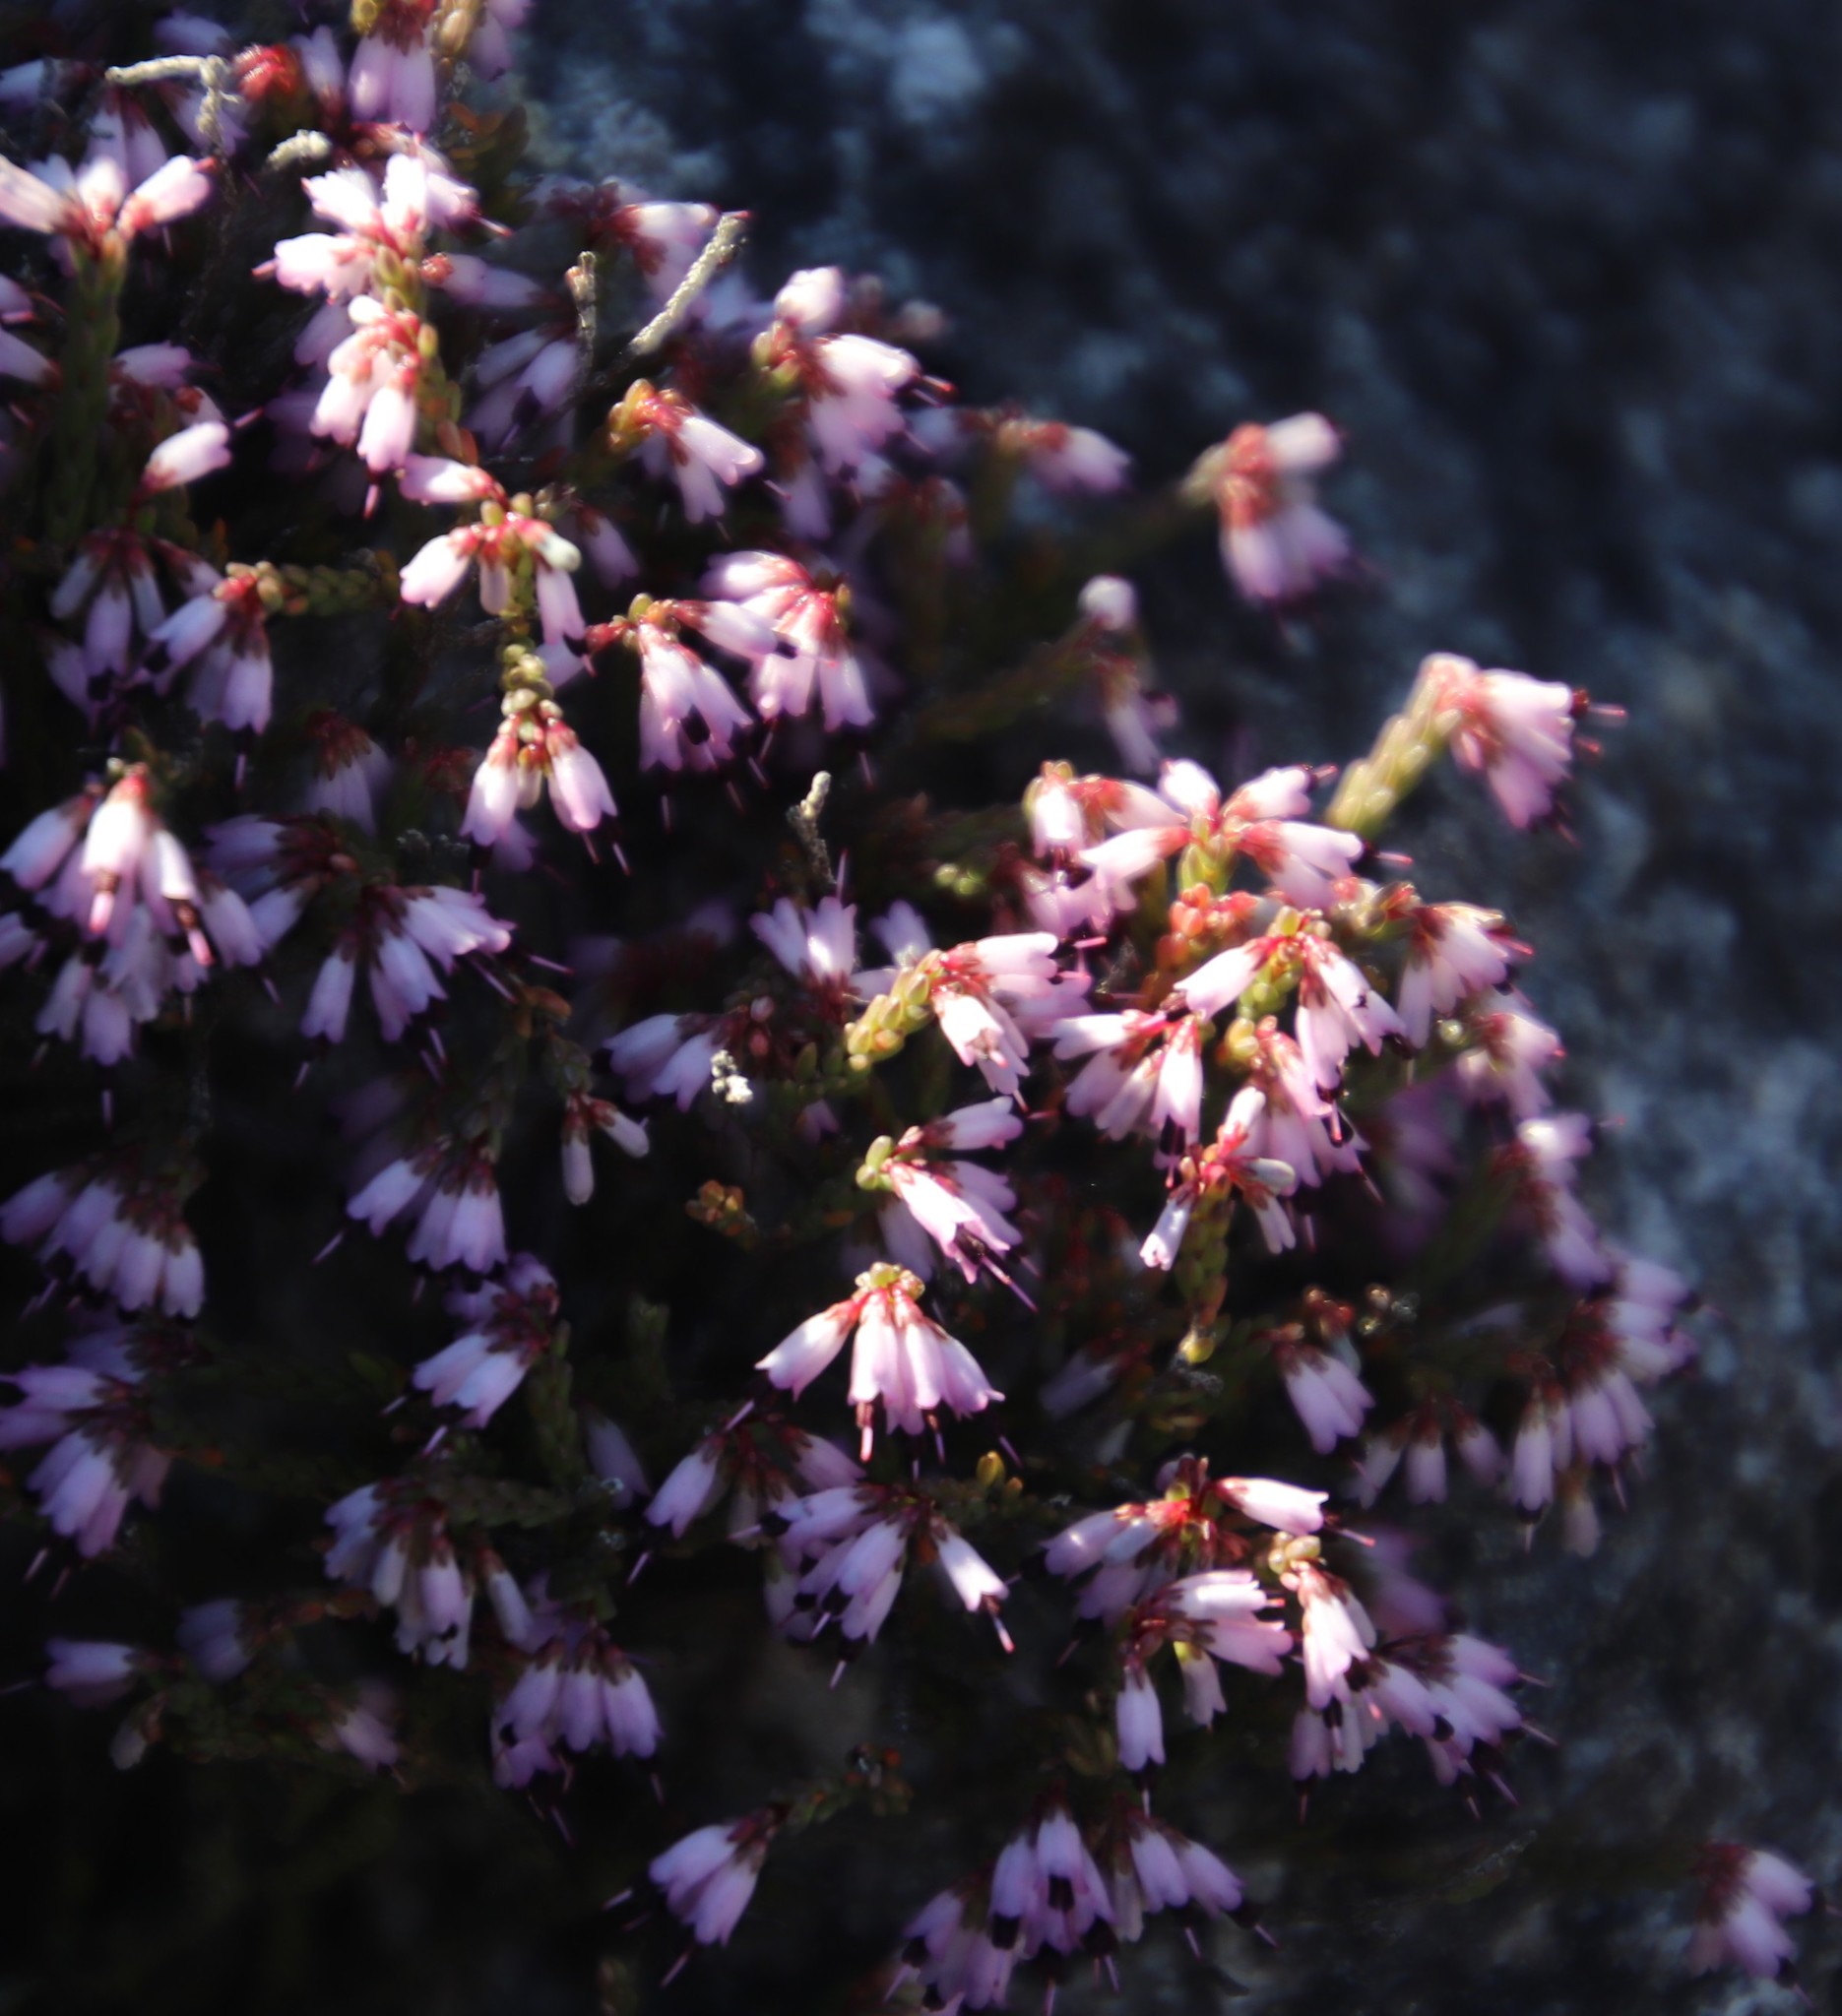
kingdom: Plantae
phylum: Tracheophyta
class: Magnoliopsida
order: Ericales
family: Ericaceae
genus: Erica
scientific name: Erica equisetifolia
